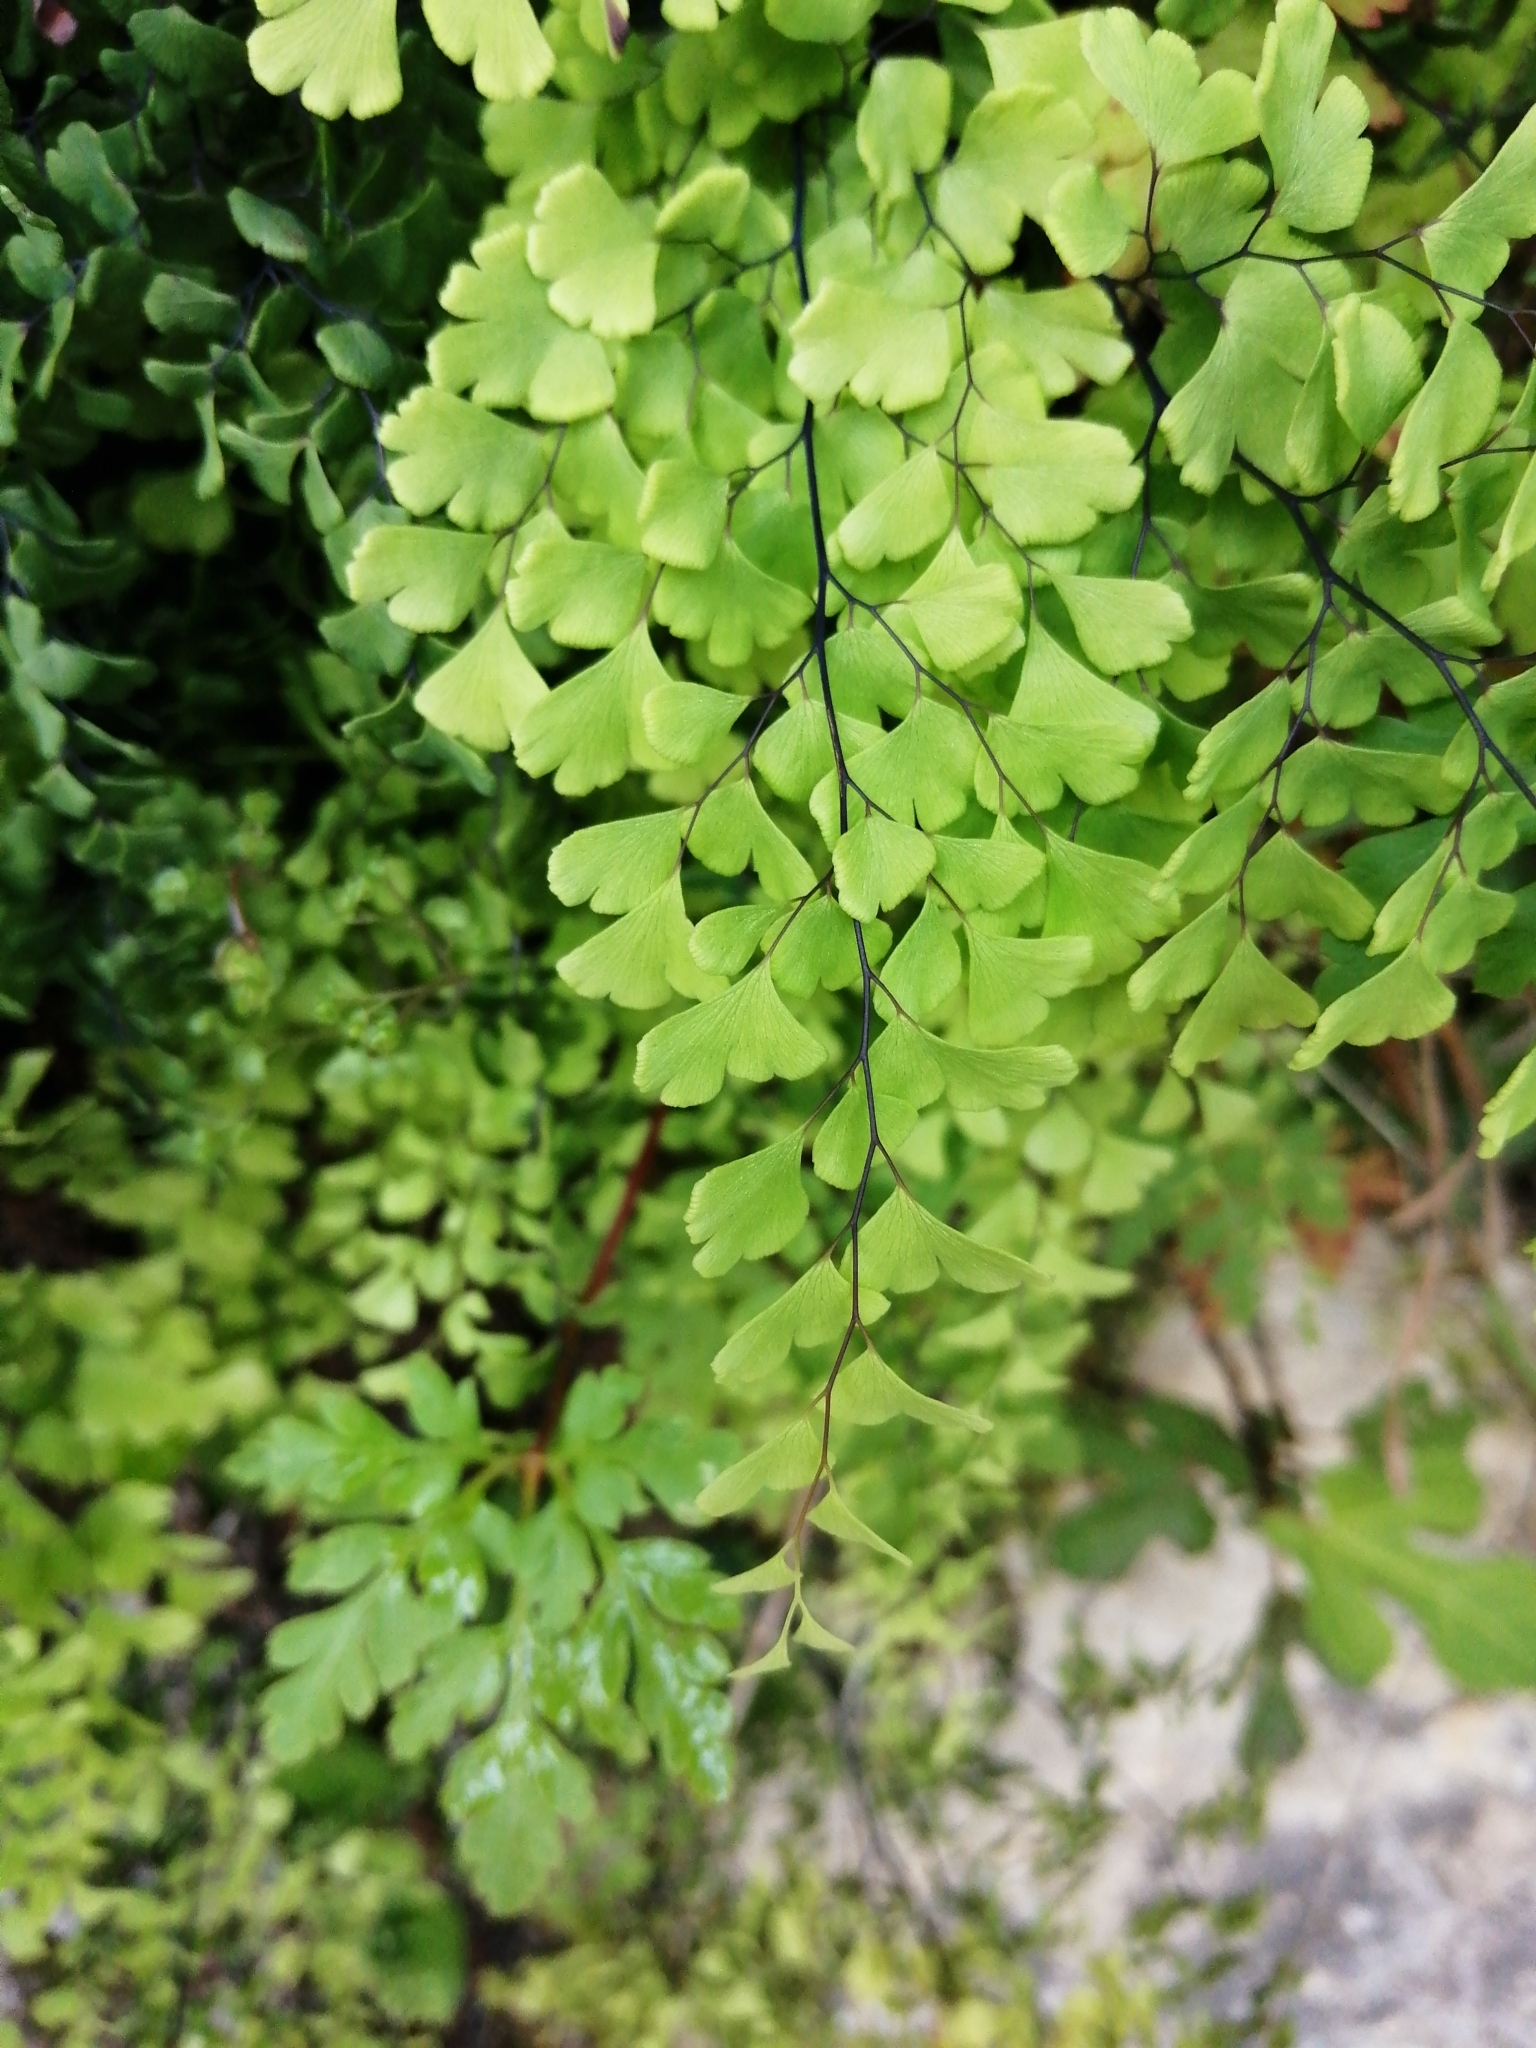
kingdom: Plantae
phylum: Tracheophyta
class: Polypodiopsida
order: Polypodiales
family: Pteridaceae
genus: Adiantum
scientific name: Adiantum capillus-veneris
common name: Maidenhair fern
